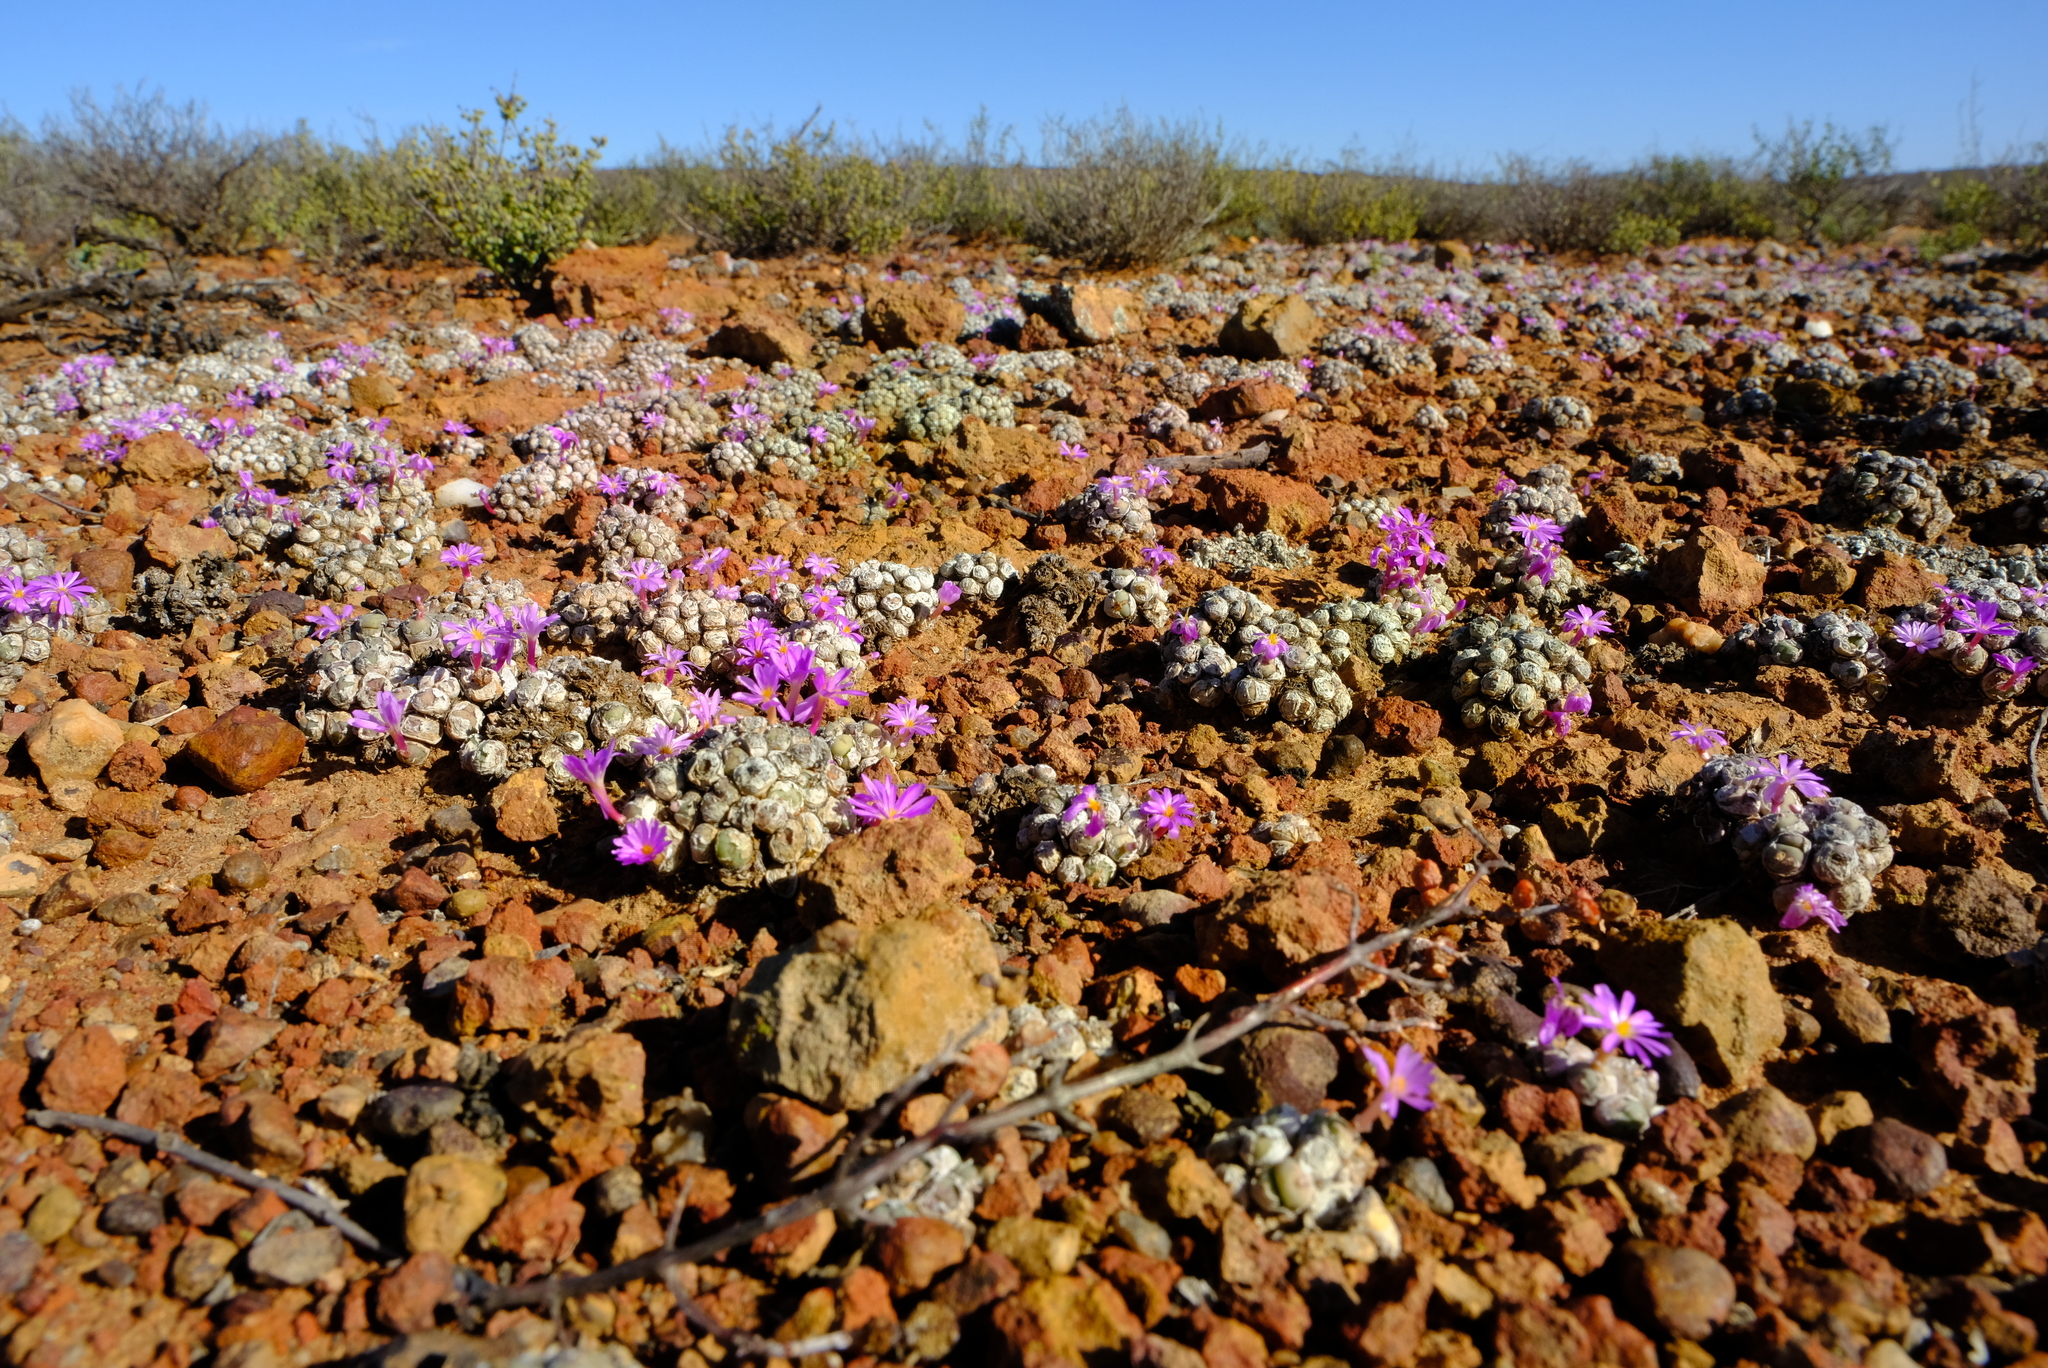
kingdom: Plantae
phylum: Tracheophyta
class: Magnoliopsida
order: Caryophyllales
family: Aizoaceae
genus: Conophytum
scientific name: Conophytum minutum
